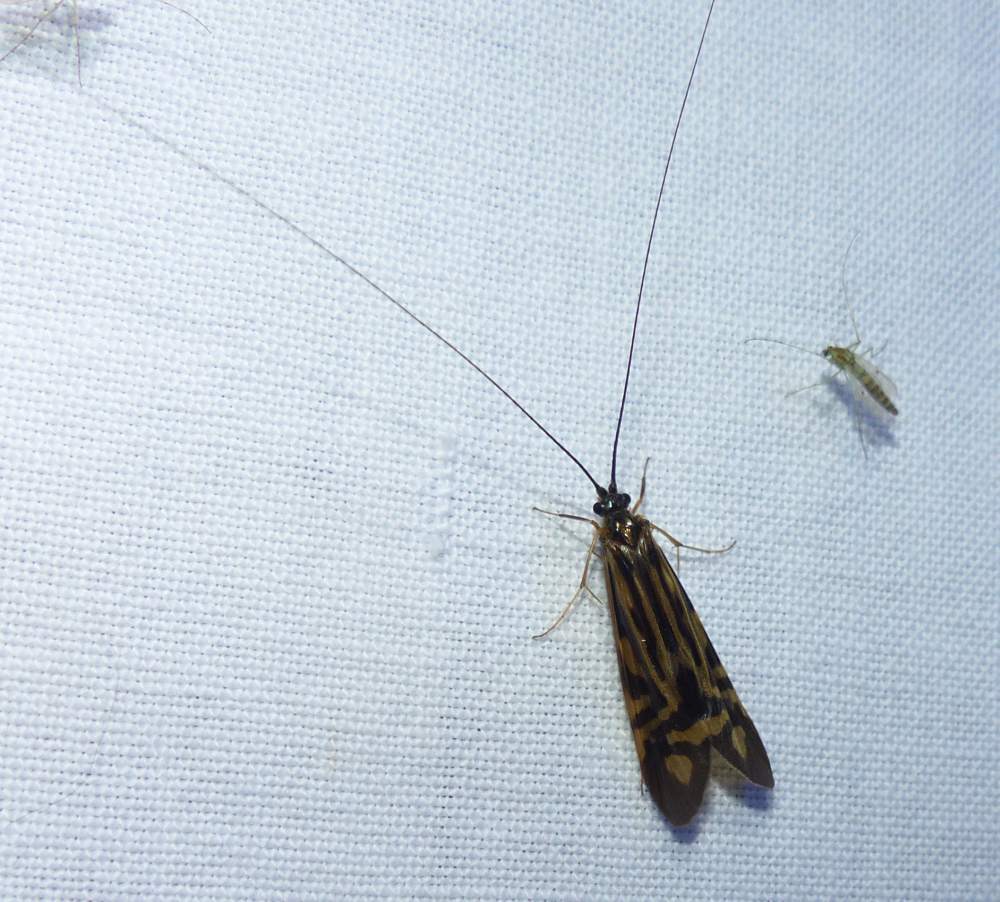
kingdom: Animalia
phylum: Arthropoda
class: Insecta
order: Trichoptera
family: Hydropsychidae
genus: Macrostemum
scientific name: Macrostemum zebratum
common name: Zebra caddisfly
